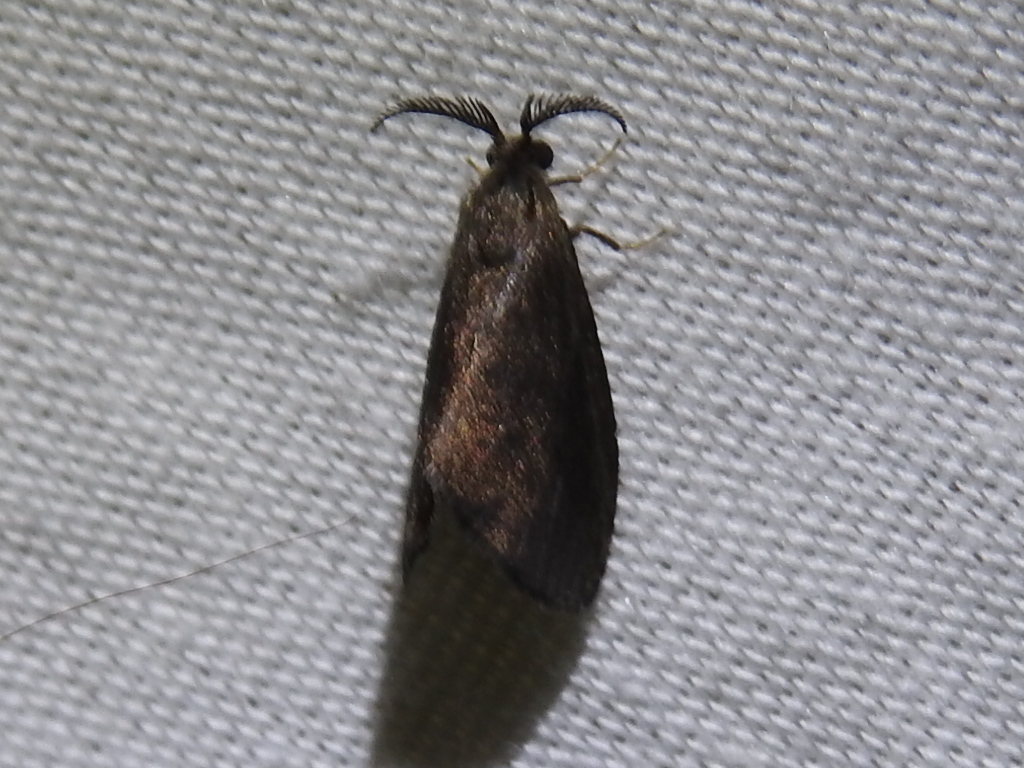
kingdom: Animalia
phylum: Arthropoda
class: Insecta
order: Lepidoptera
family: Psychidae
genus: Cryptothelea
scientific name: Cryptothelea gloverii
